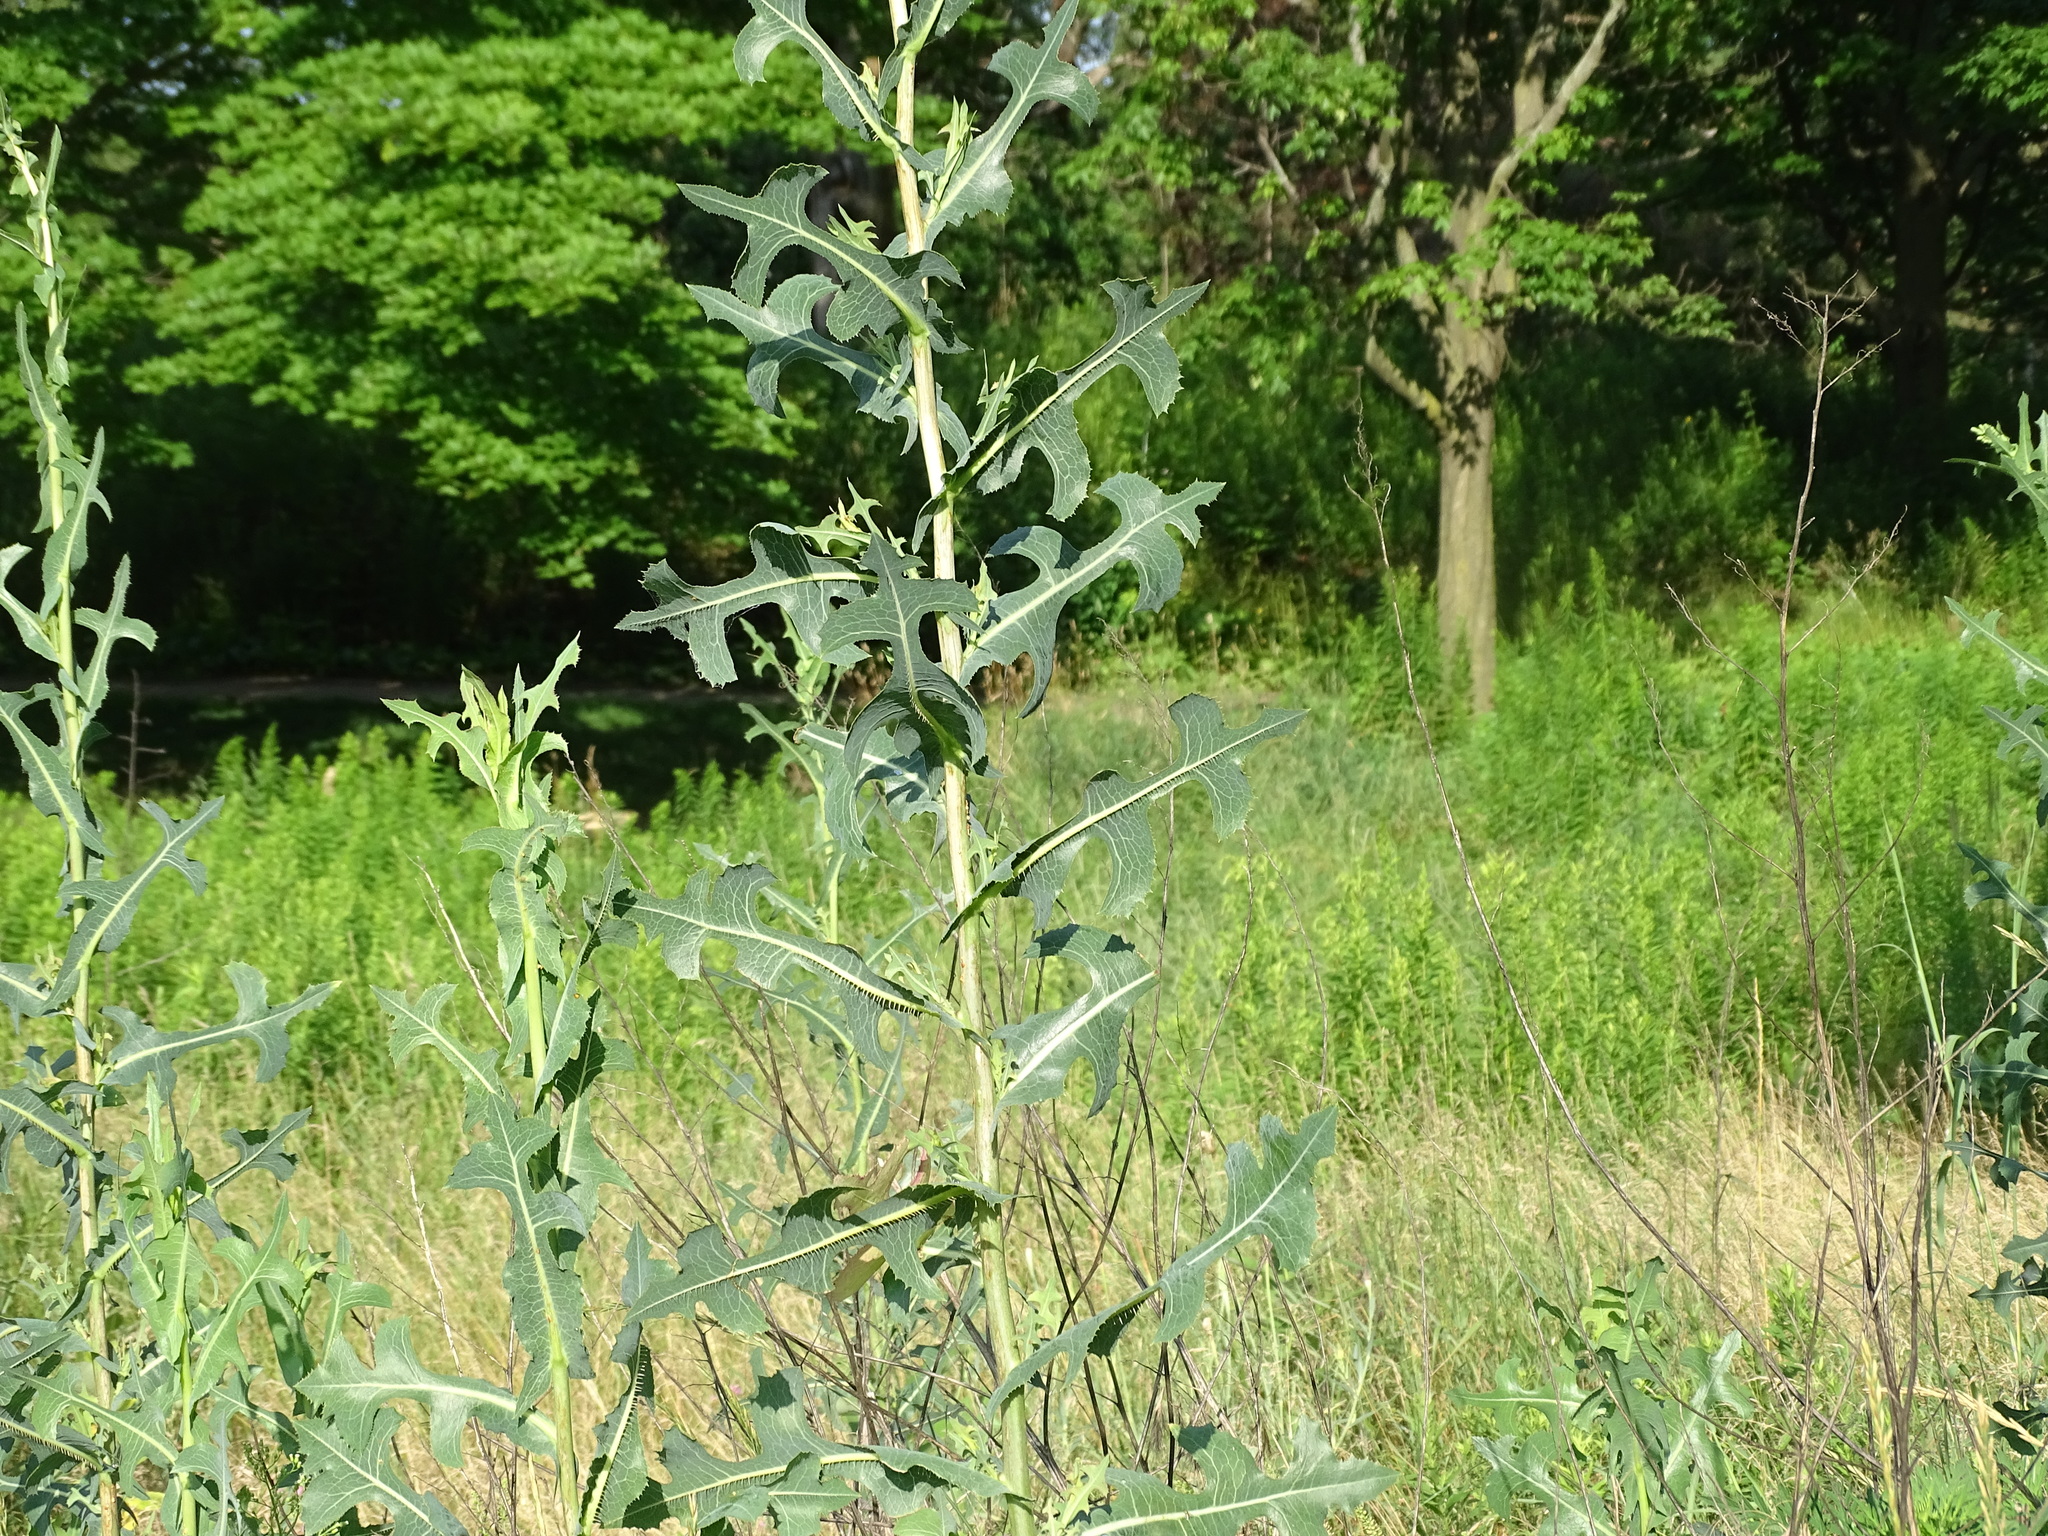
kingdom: Plantae
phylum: Tracheophyta
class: Magnoliopsida
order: Asterales
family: Asteraceae
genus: Lactuca
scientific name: Lactuca serriola
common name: Prickly lettuce
